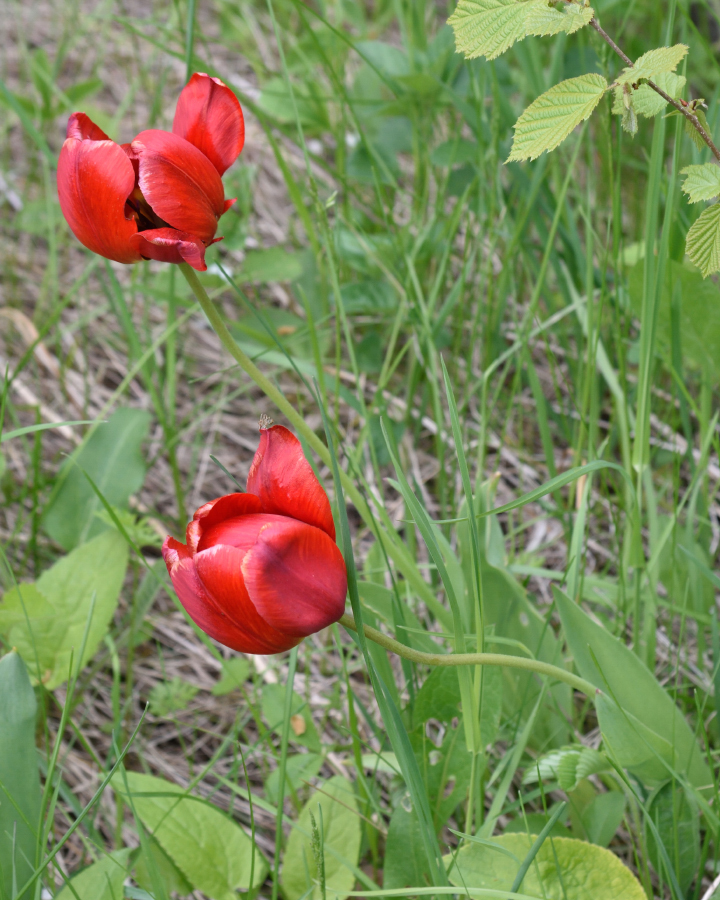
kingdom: Plantae
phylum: Tracheophyta
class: Liliopsida
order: Liliales
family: Liliaceae
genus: Tulipa
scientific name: Tulipa gesneriana
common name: Garden tulip
